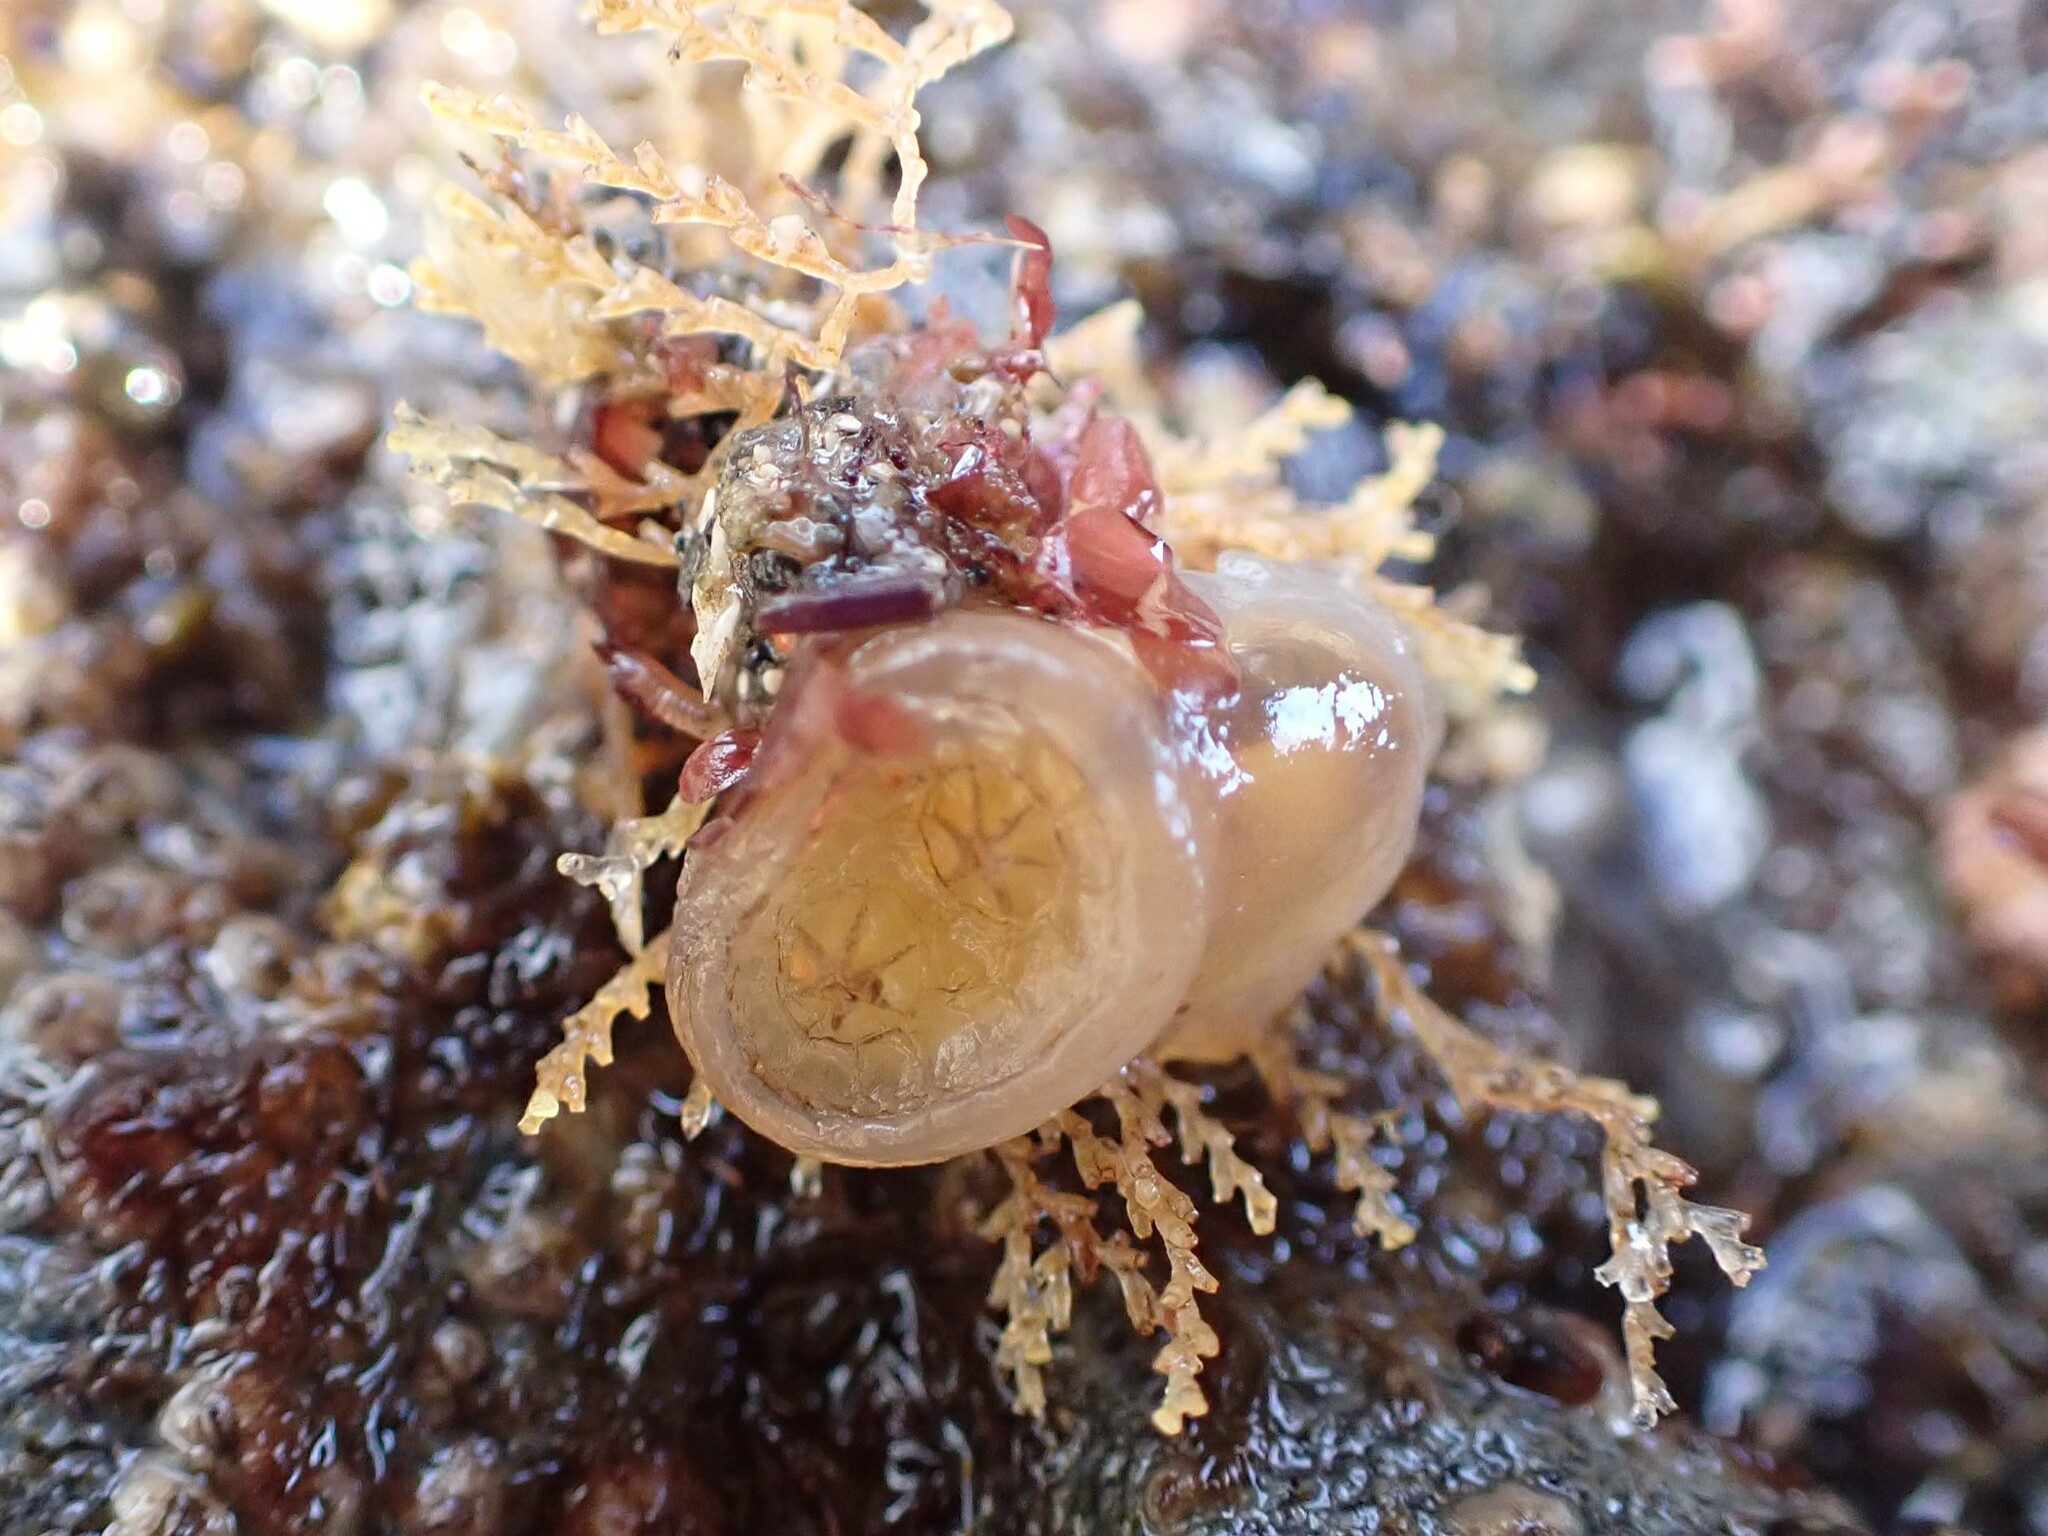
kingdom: Animalia
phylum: Chordata
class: Ascidiacea
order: Phlebobranchia
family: Corellidae
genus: Chelyosoma
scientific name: Chelyosoma productum
